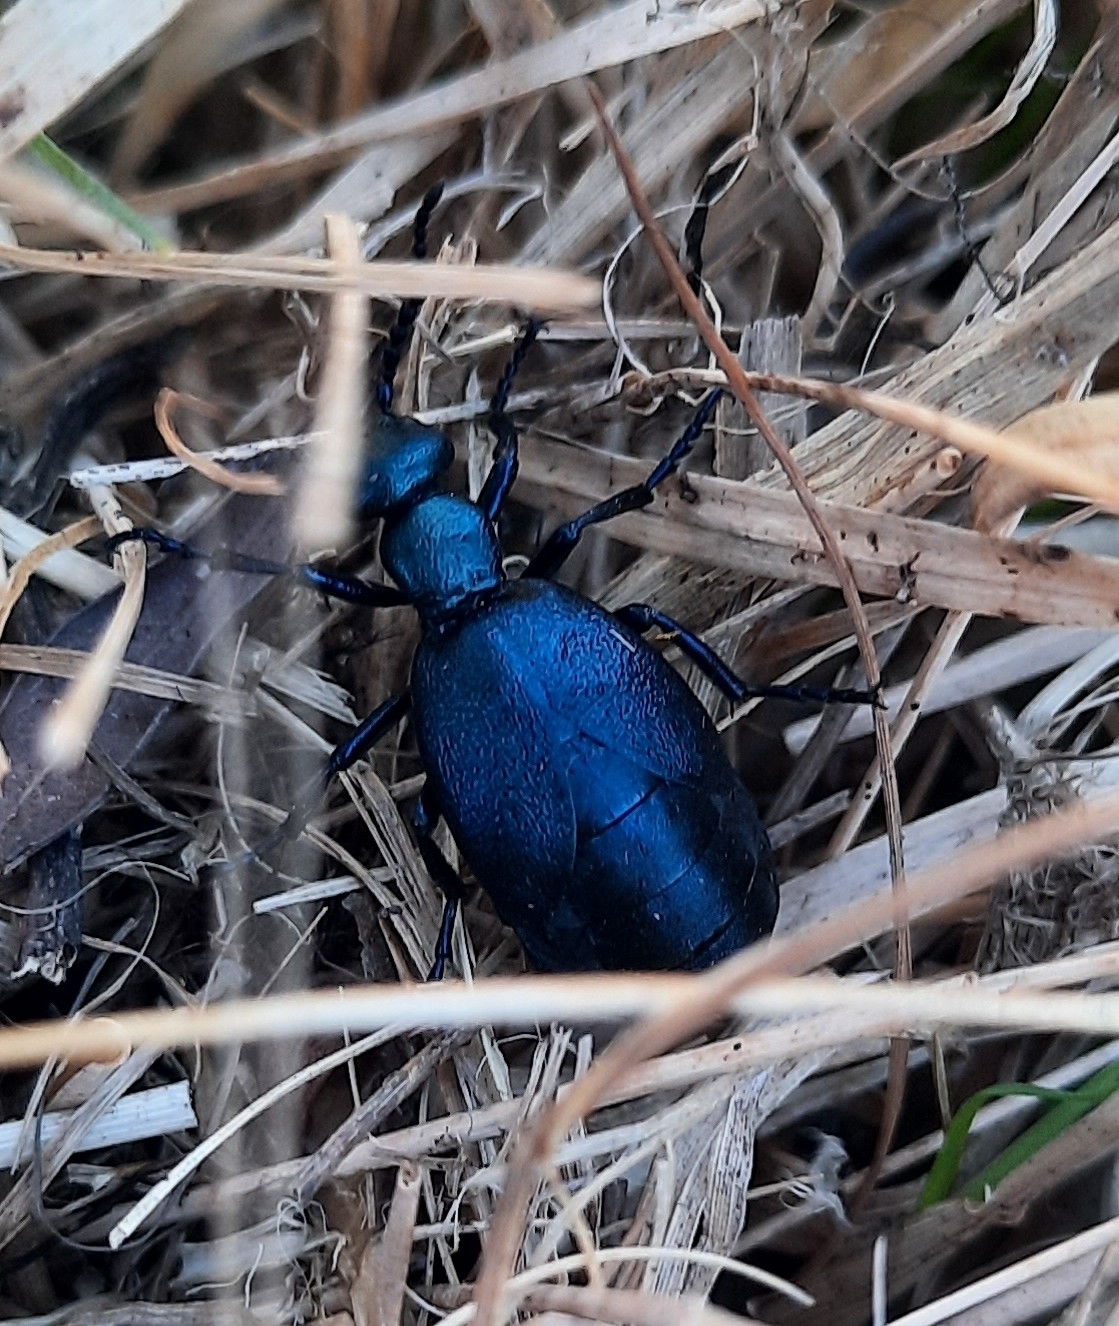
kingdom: Animalia
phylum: Arthropoda
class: Insecta
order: Coleoptera
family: Meloidae
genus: Meloe
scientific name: Meloe violaceus
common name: Violet oil-beetle
